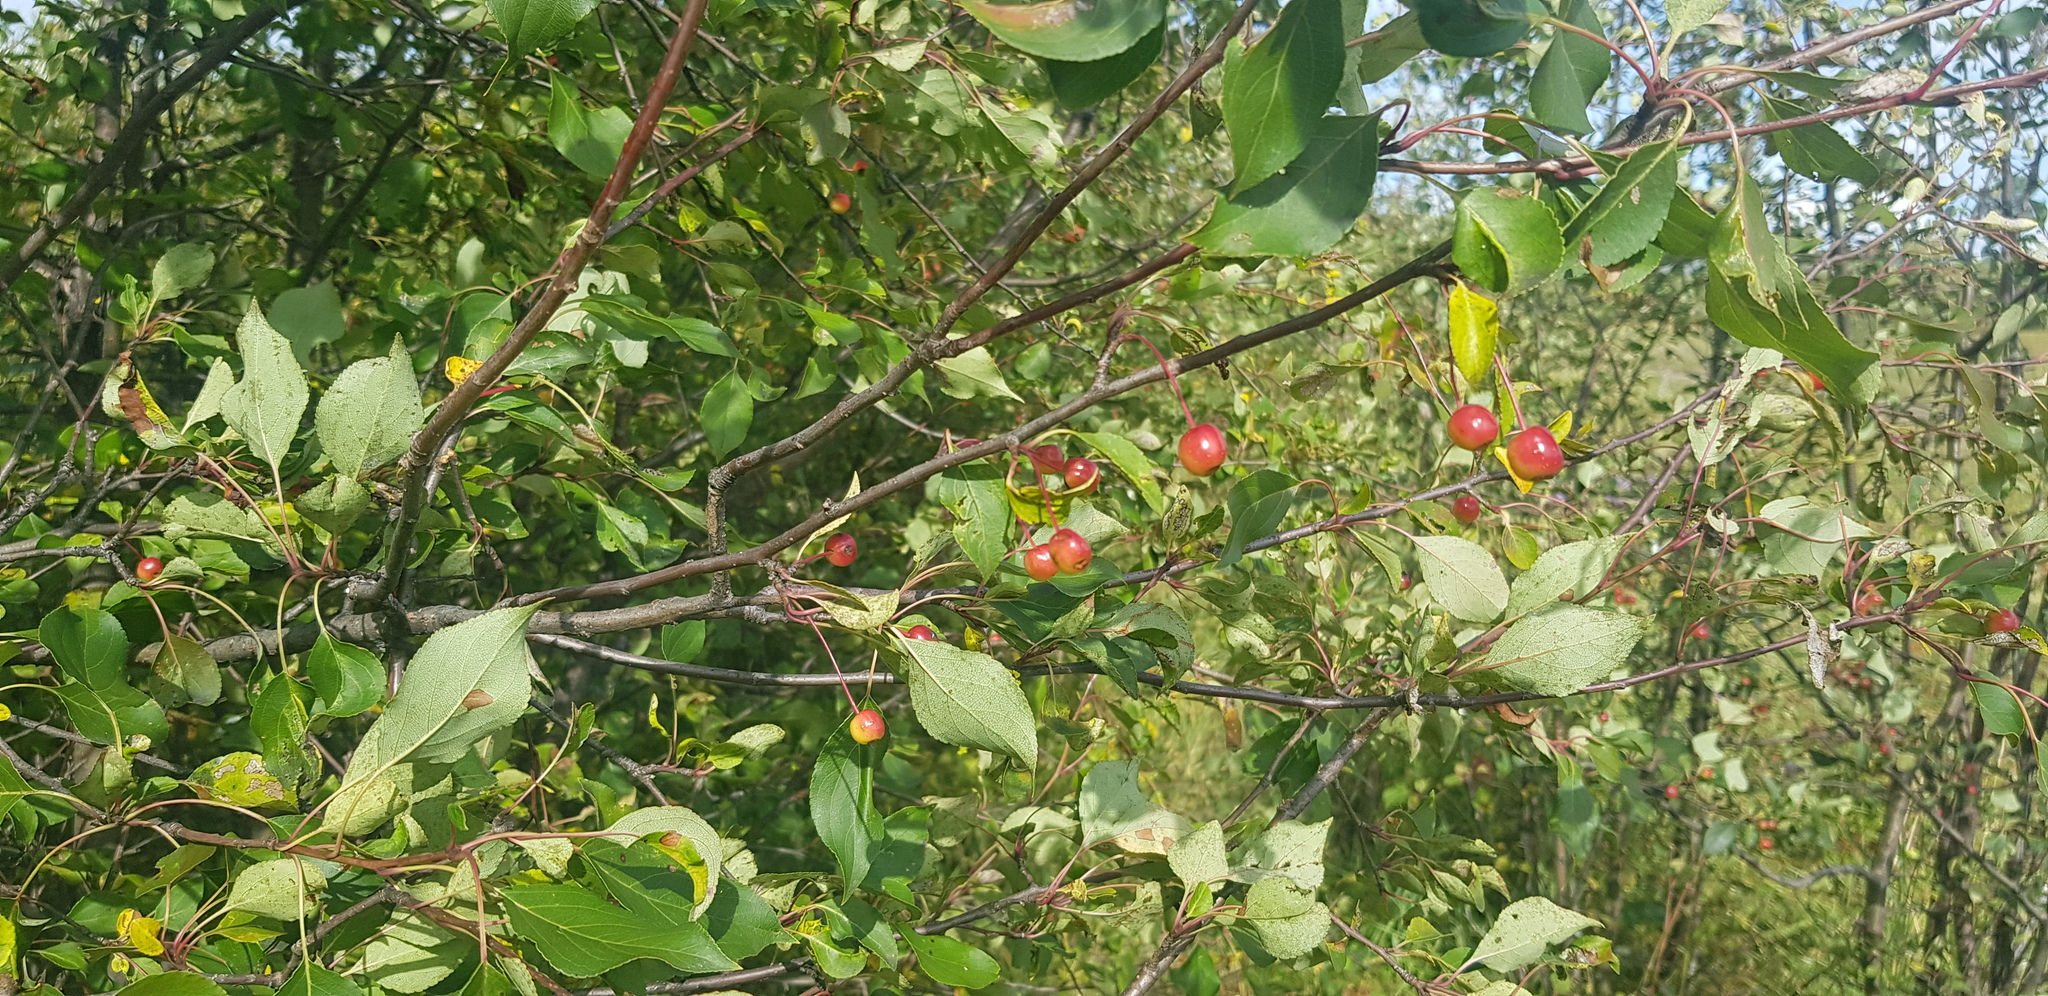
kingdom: Plantae
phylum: Tracheophyta
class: Magnoliopsida
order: Rosales
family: Rosaceae
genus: Malus
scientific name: Malus baccata
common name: Siberian crab
